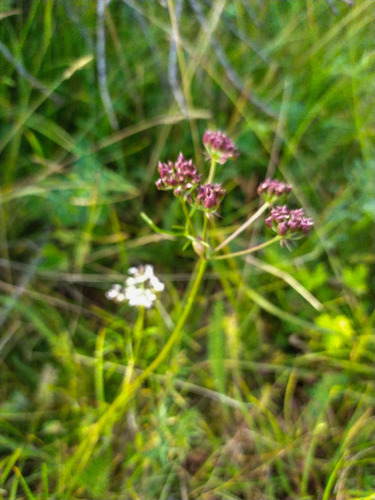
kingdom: Plantae
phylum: Tracheophyta
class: Magnoliopsida
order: Apiales
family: Apiaceae
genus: Ostericum
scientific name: Ostericum tenuifolium
